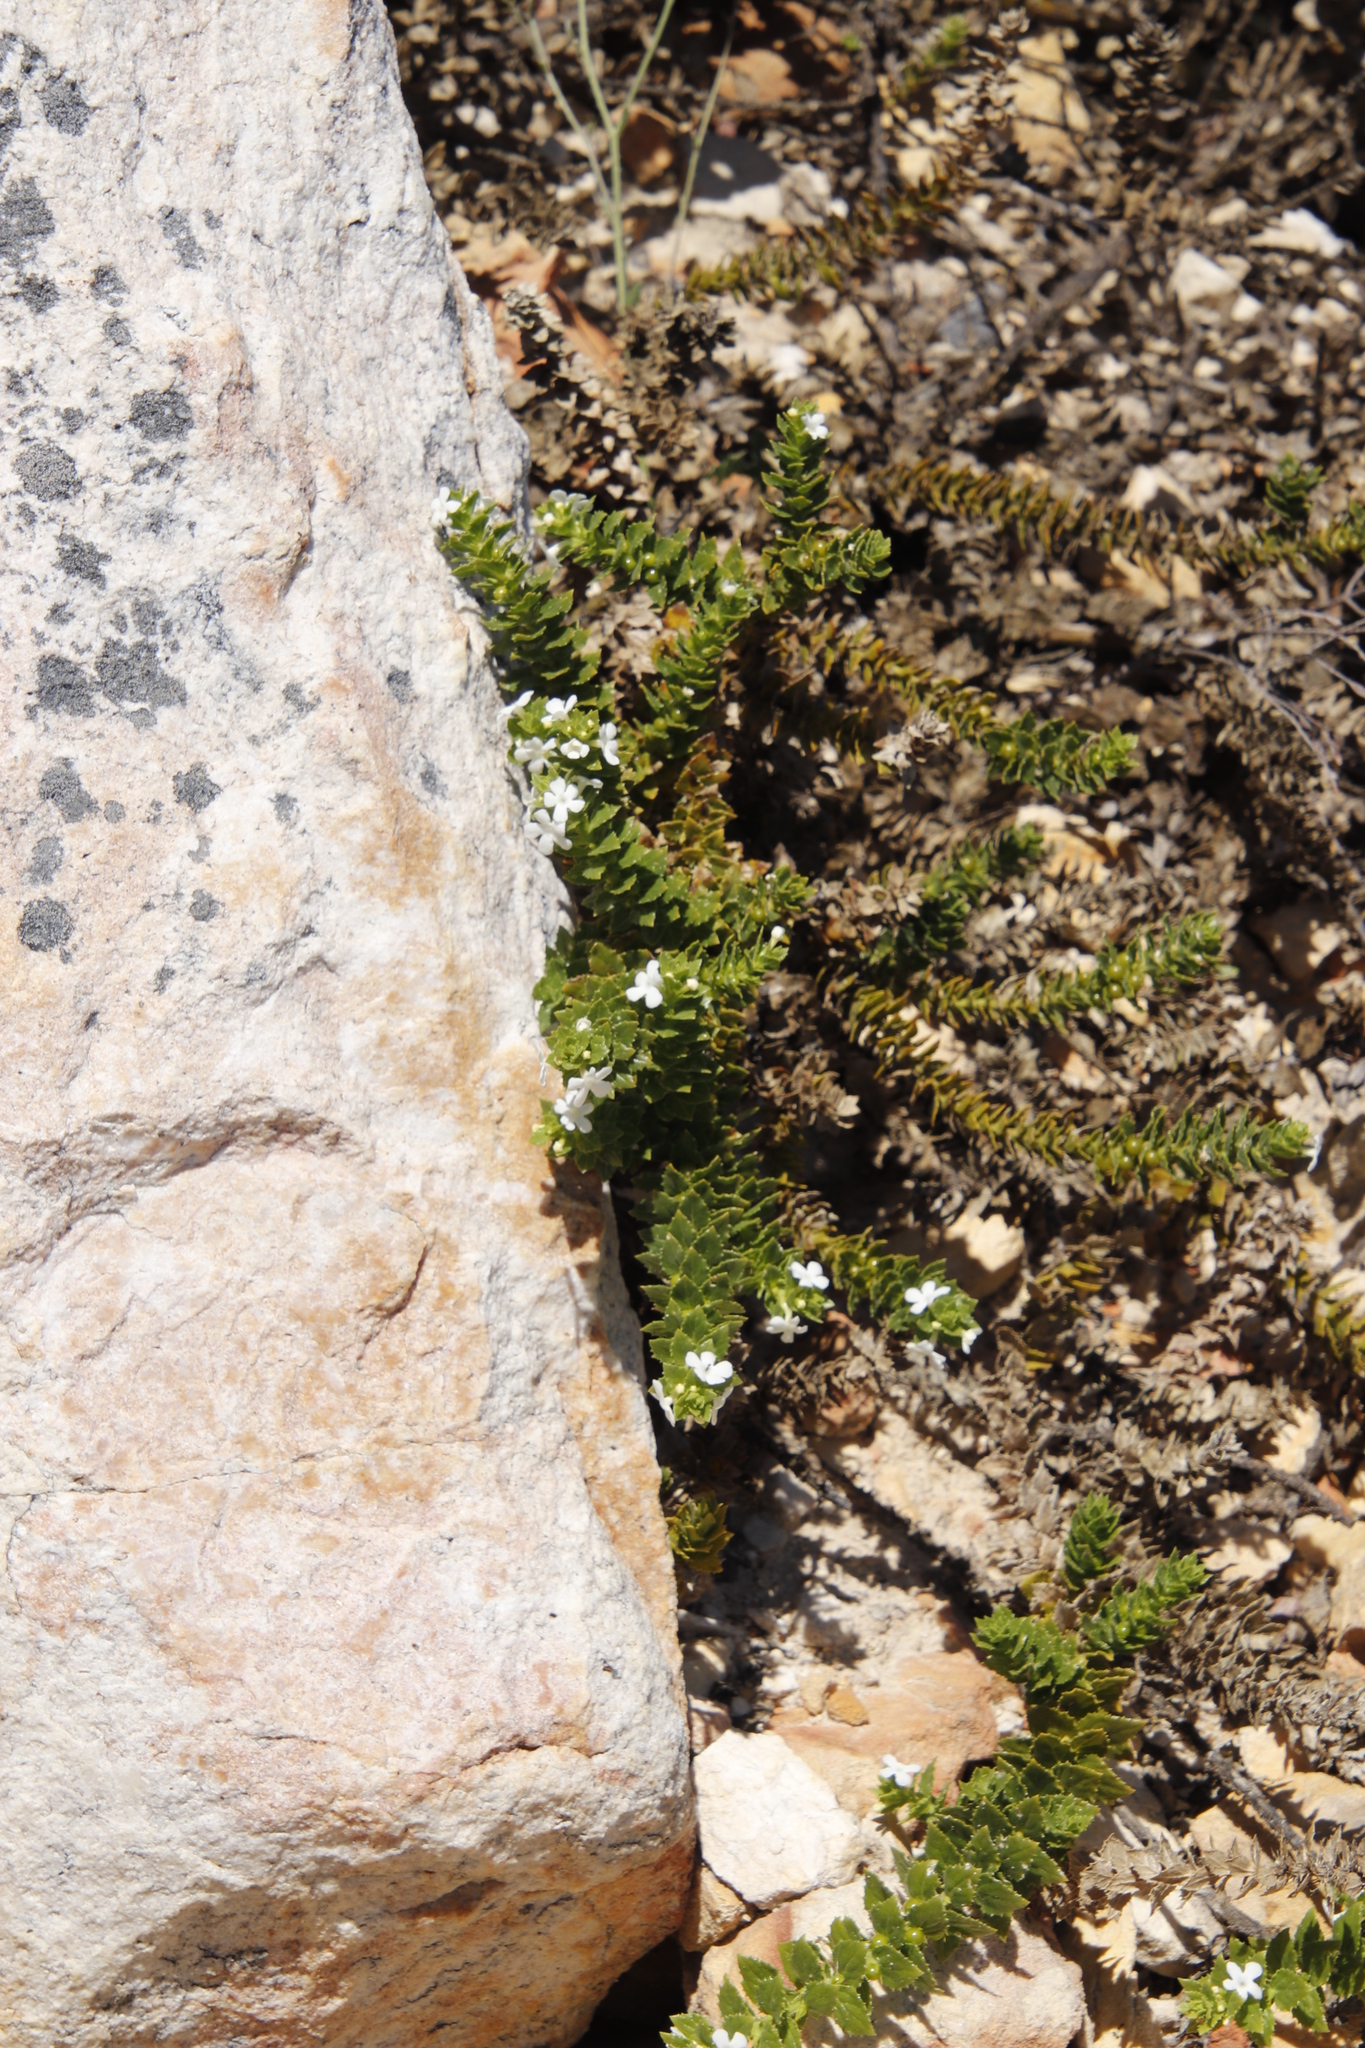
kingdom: Plantae
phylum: Tracheophyta
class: Magnoliopsida
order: Lamiales
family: Scrophulariaceae
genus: Oftia
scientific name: Oftia africana
